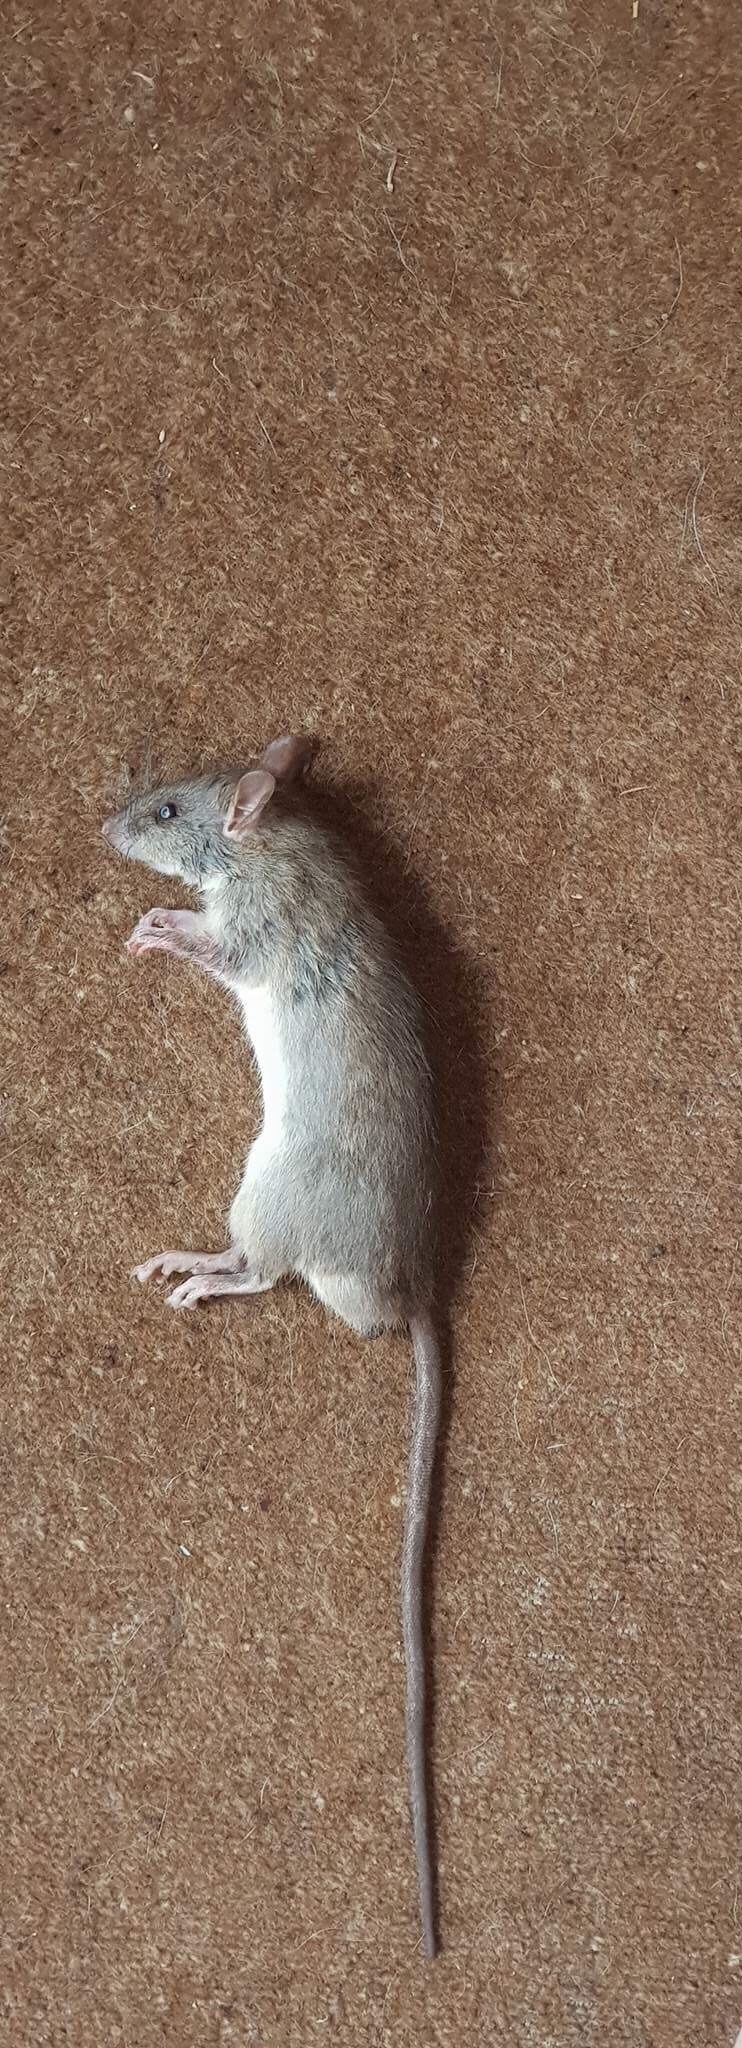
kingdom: Animalia
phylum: Chordata
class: Mammalia
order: Rodentia
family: Muridae
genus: Rattus
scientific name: Rattus rattus
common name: Black rat
